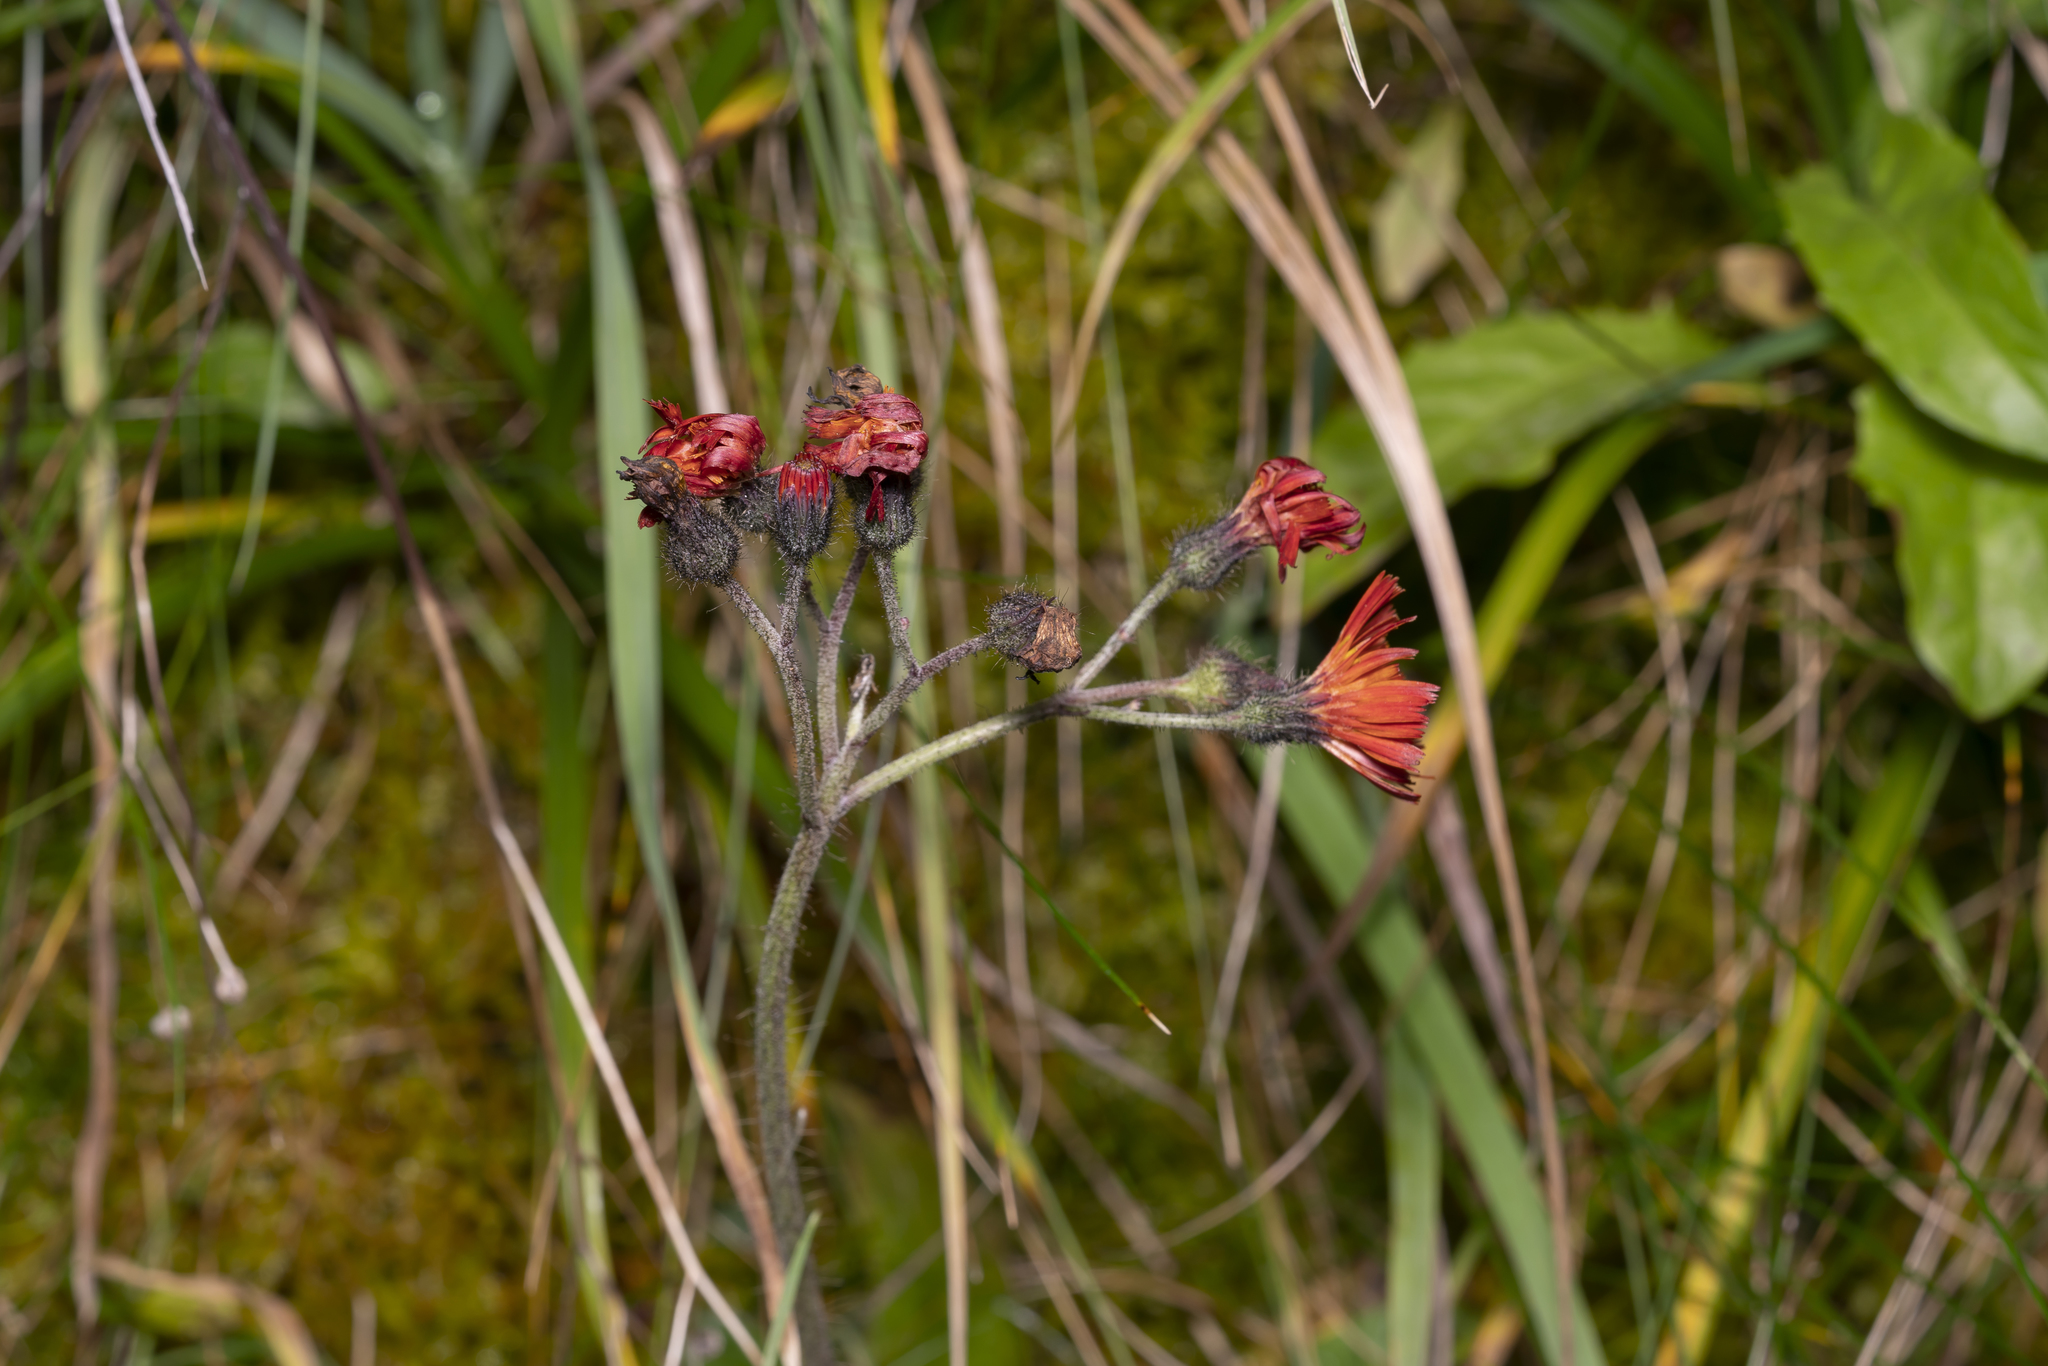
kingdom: Plantae
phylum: Tracheophyta
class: Magnoliopsida
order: Asterales
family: Asteraceae
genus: Pilosella
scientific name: Pilosella aurantiaca
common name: Fox-and-cubs
